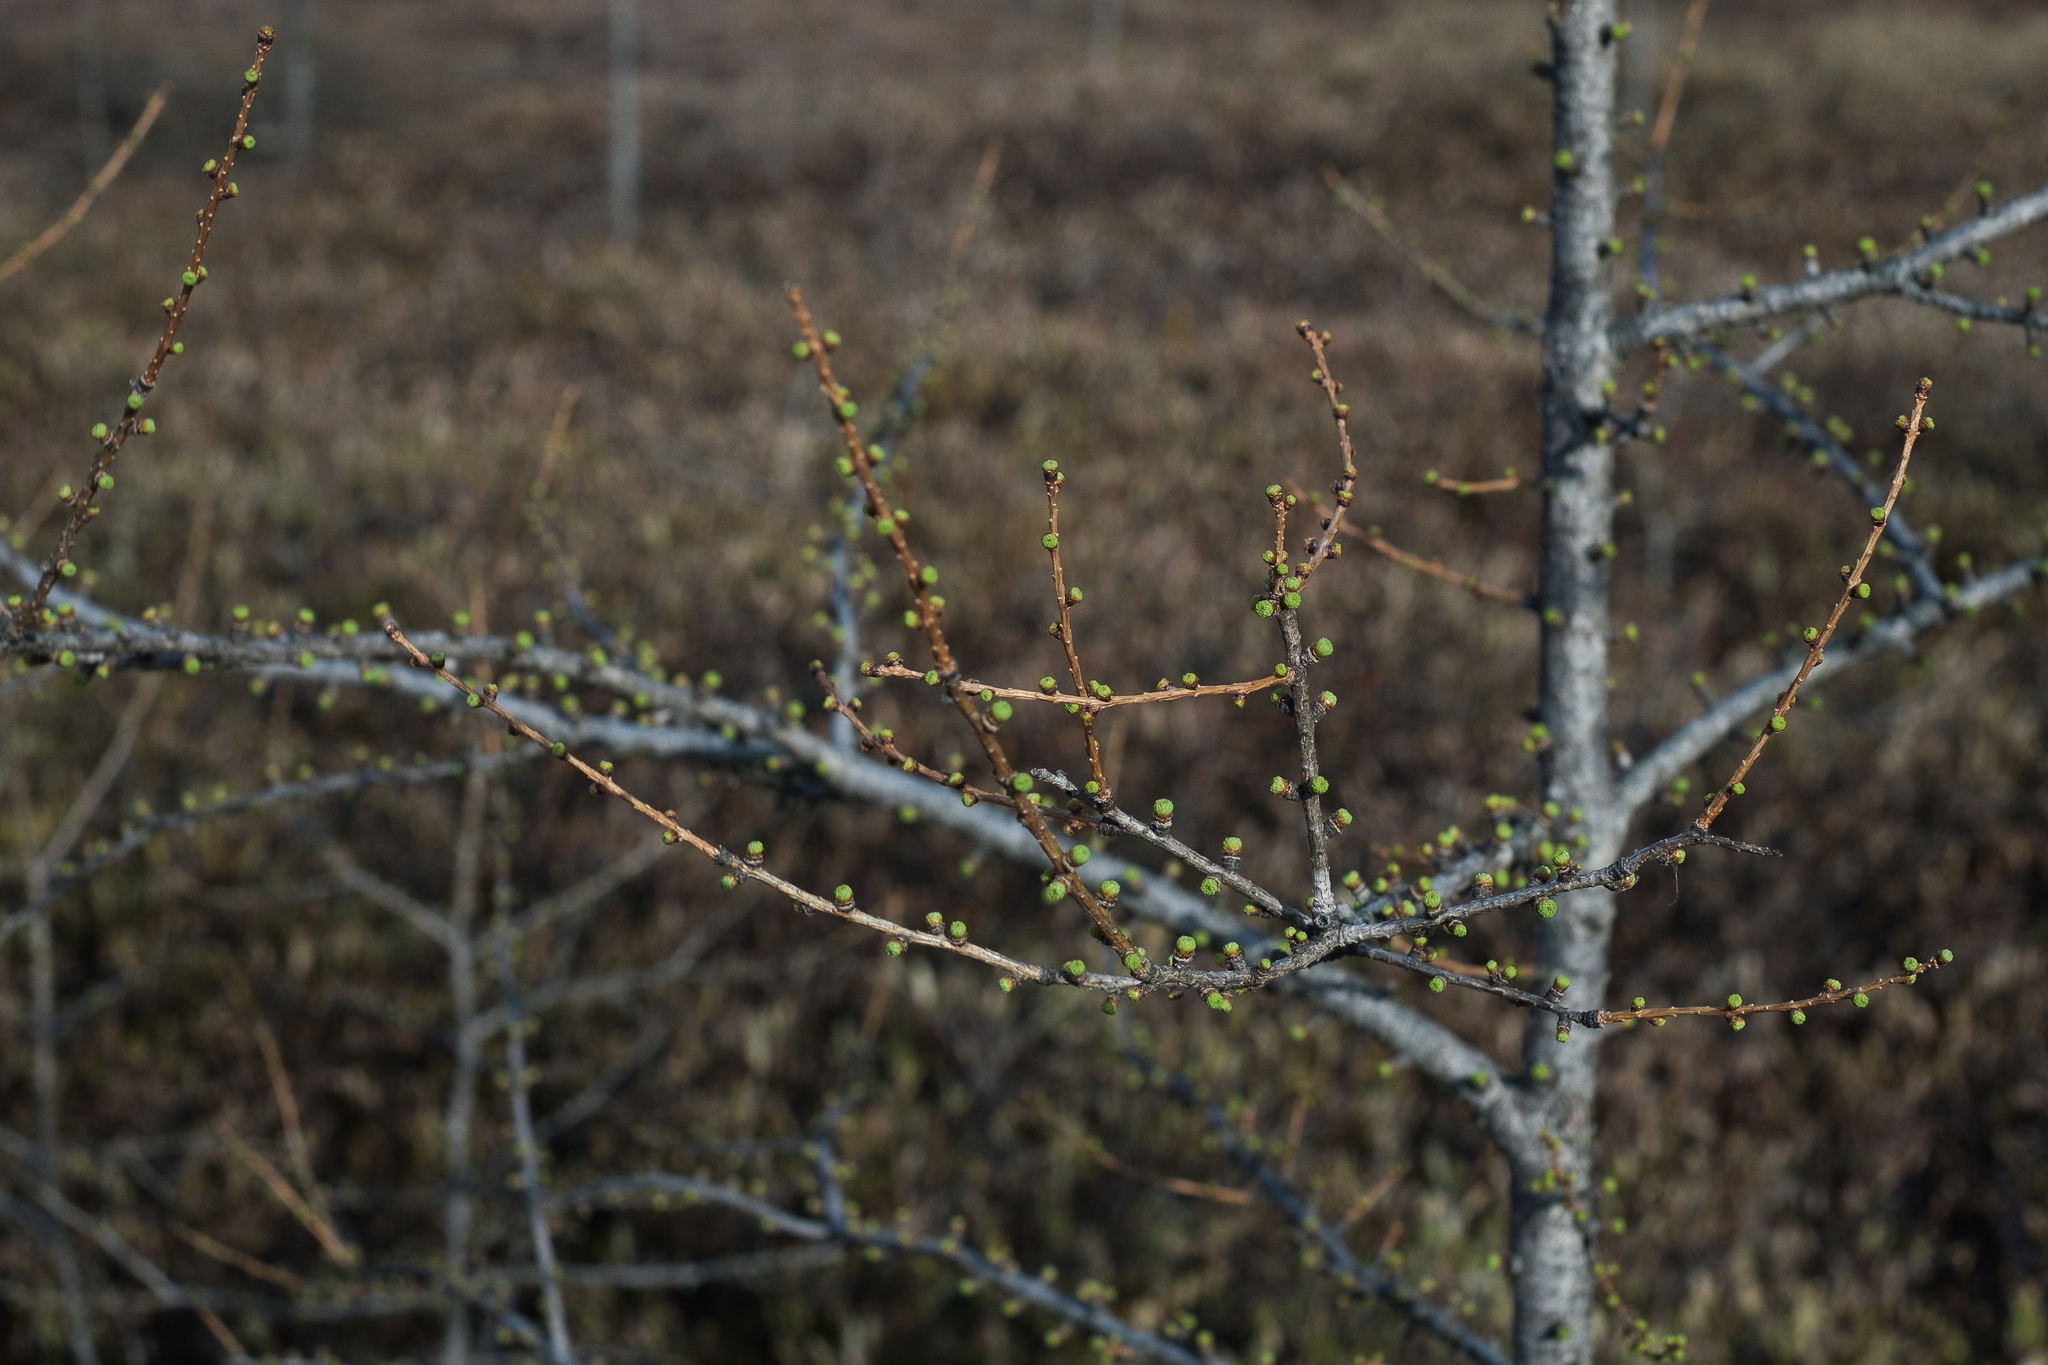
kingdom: Plantae
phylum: Tracheophyta
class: Pinopsida
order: Pinales
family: Pinaceae
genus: Larix
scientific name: Larix laricina
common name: American larch
